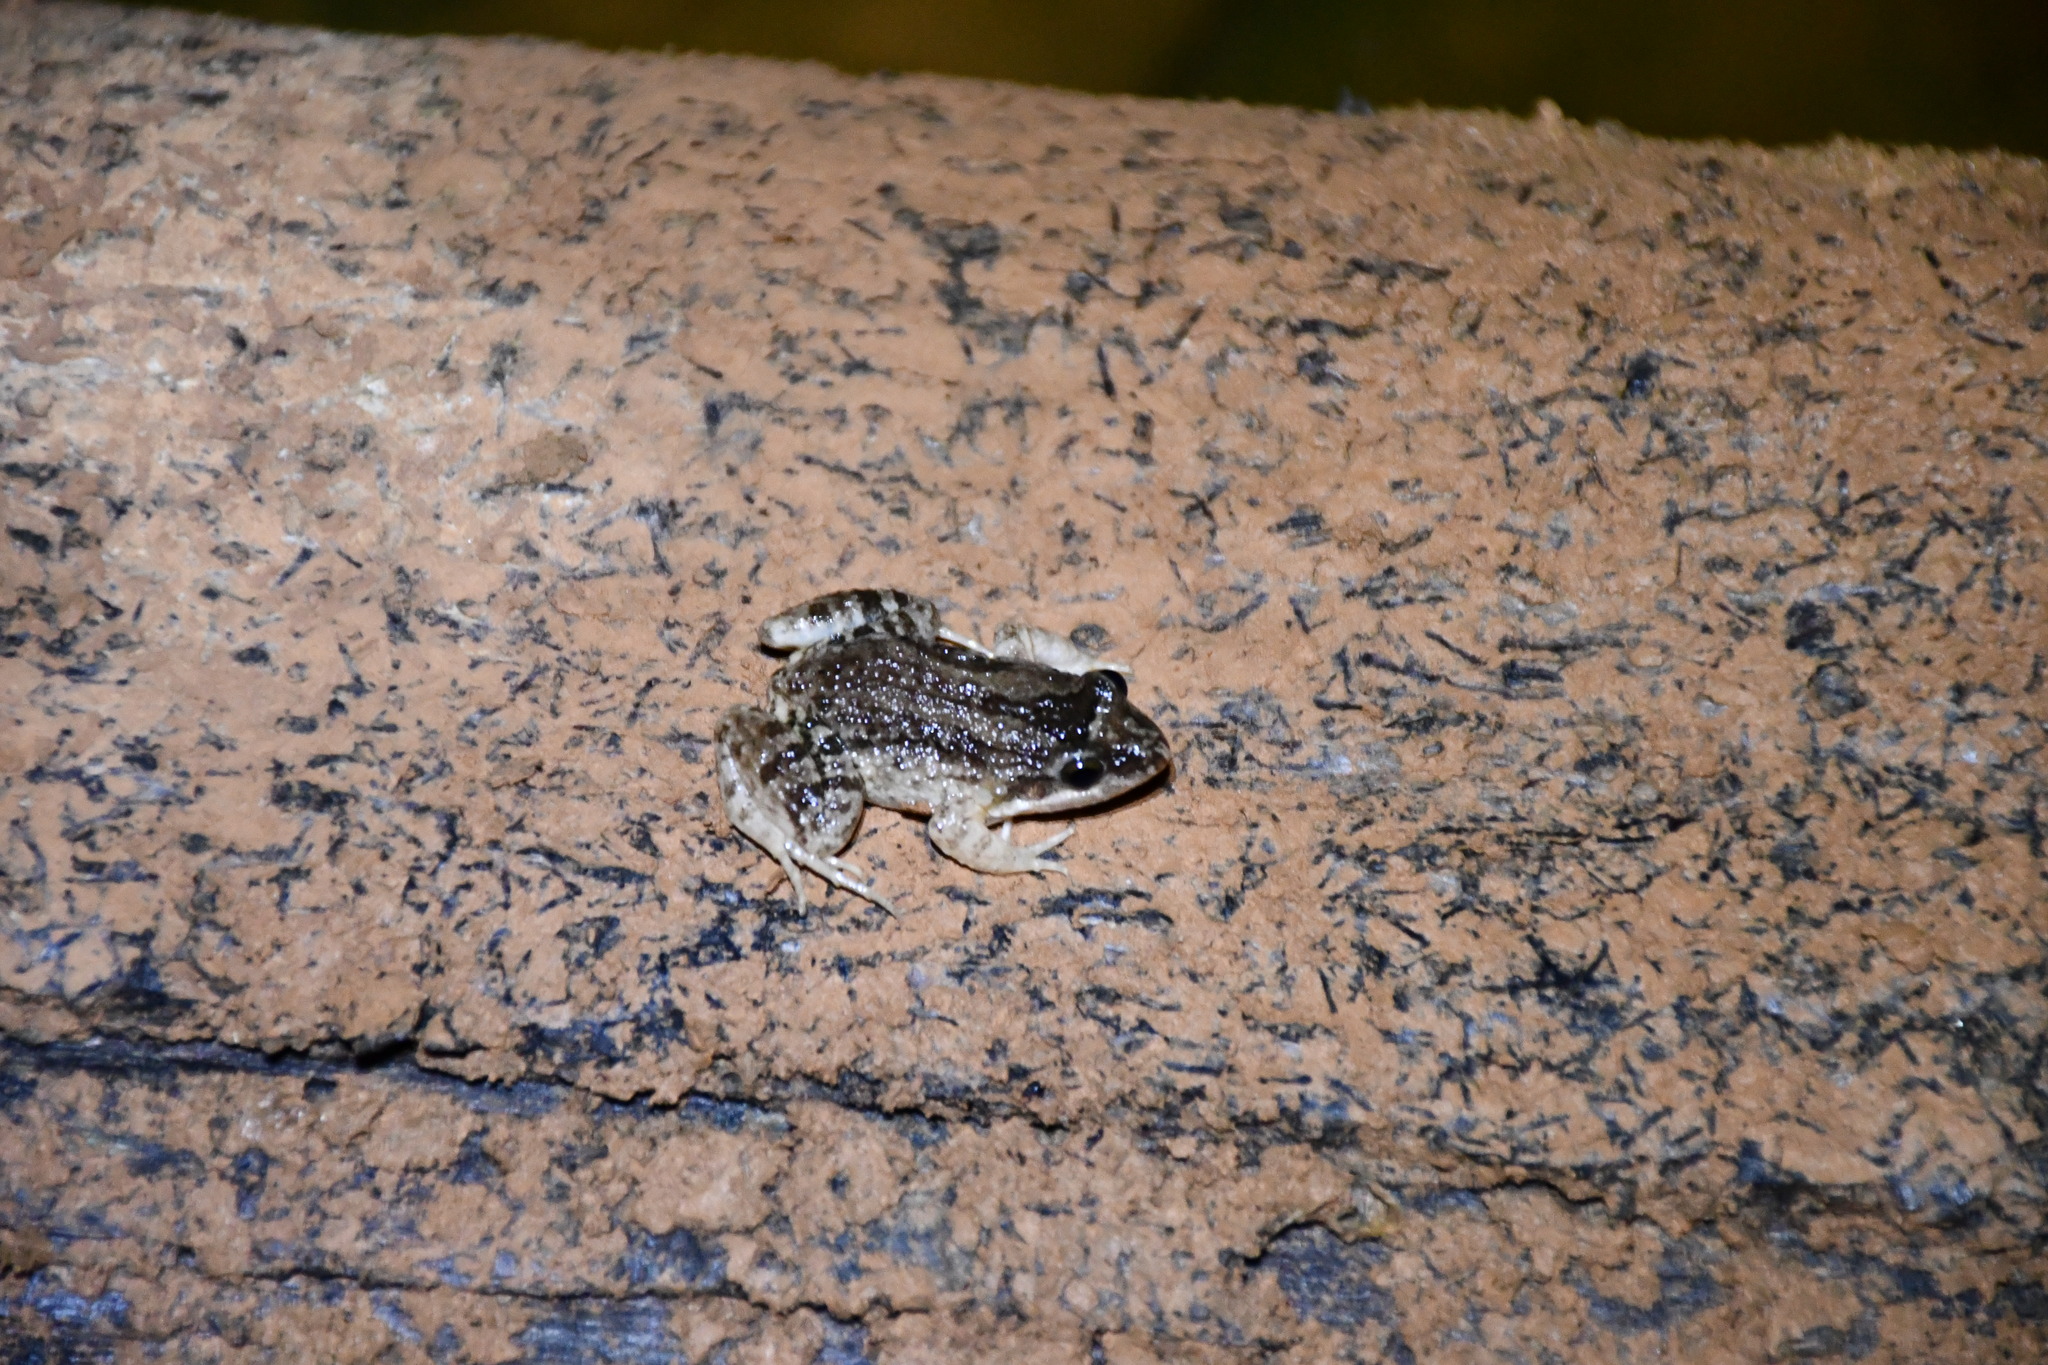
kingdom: Animalia
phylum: Chordata
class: Amphibia
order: Anura
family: Leptodactylidae
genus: Leptodactylus
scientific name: Leptodactylus petersii
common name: Peters' thin-toed frog
